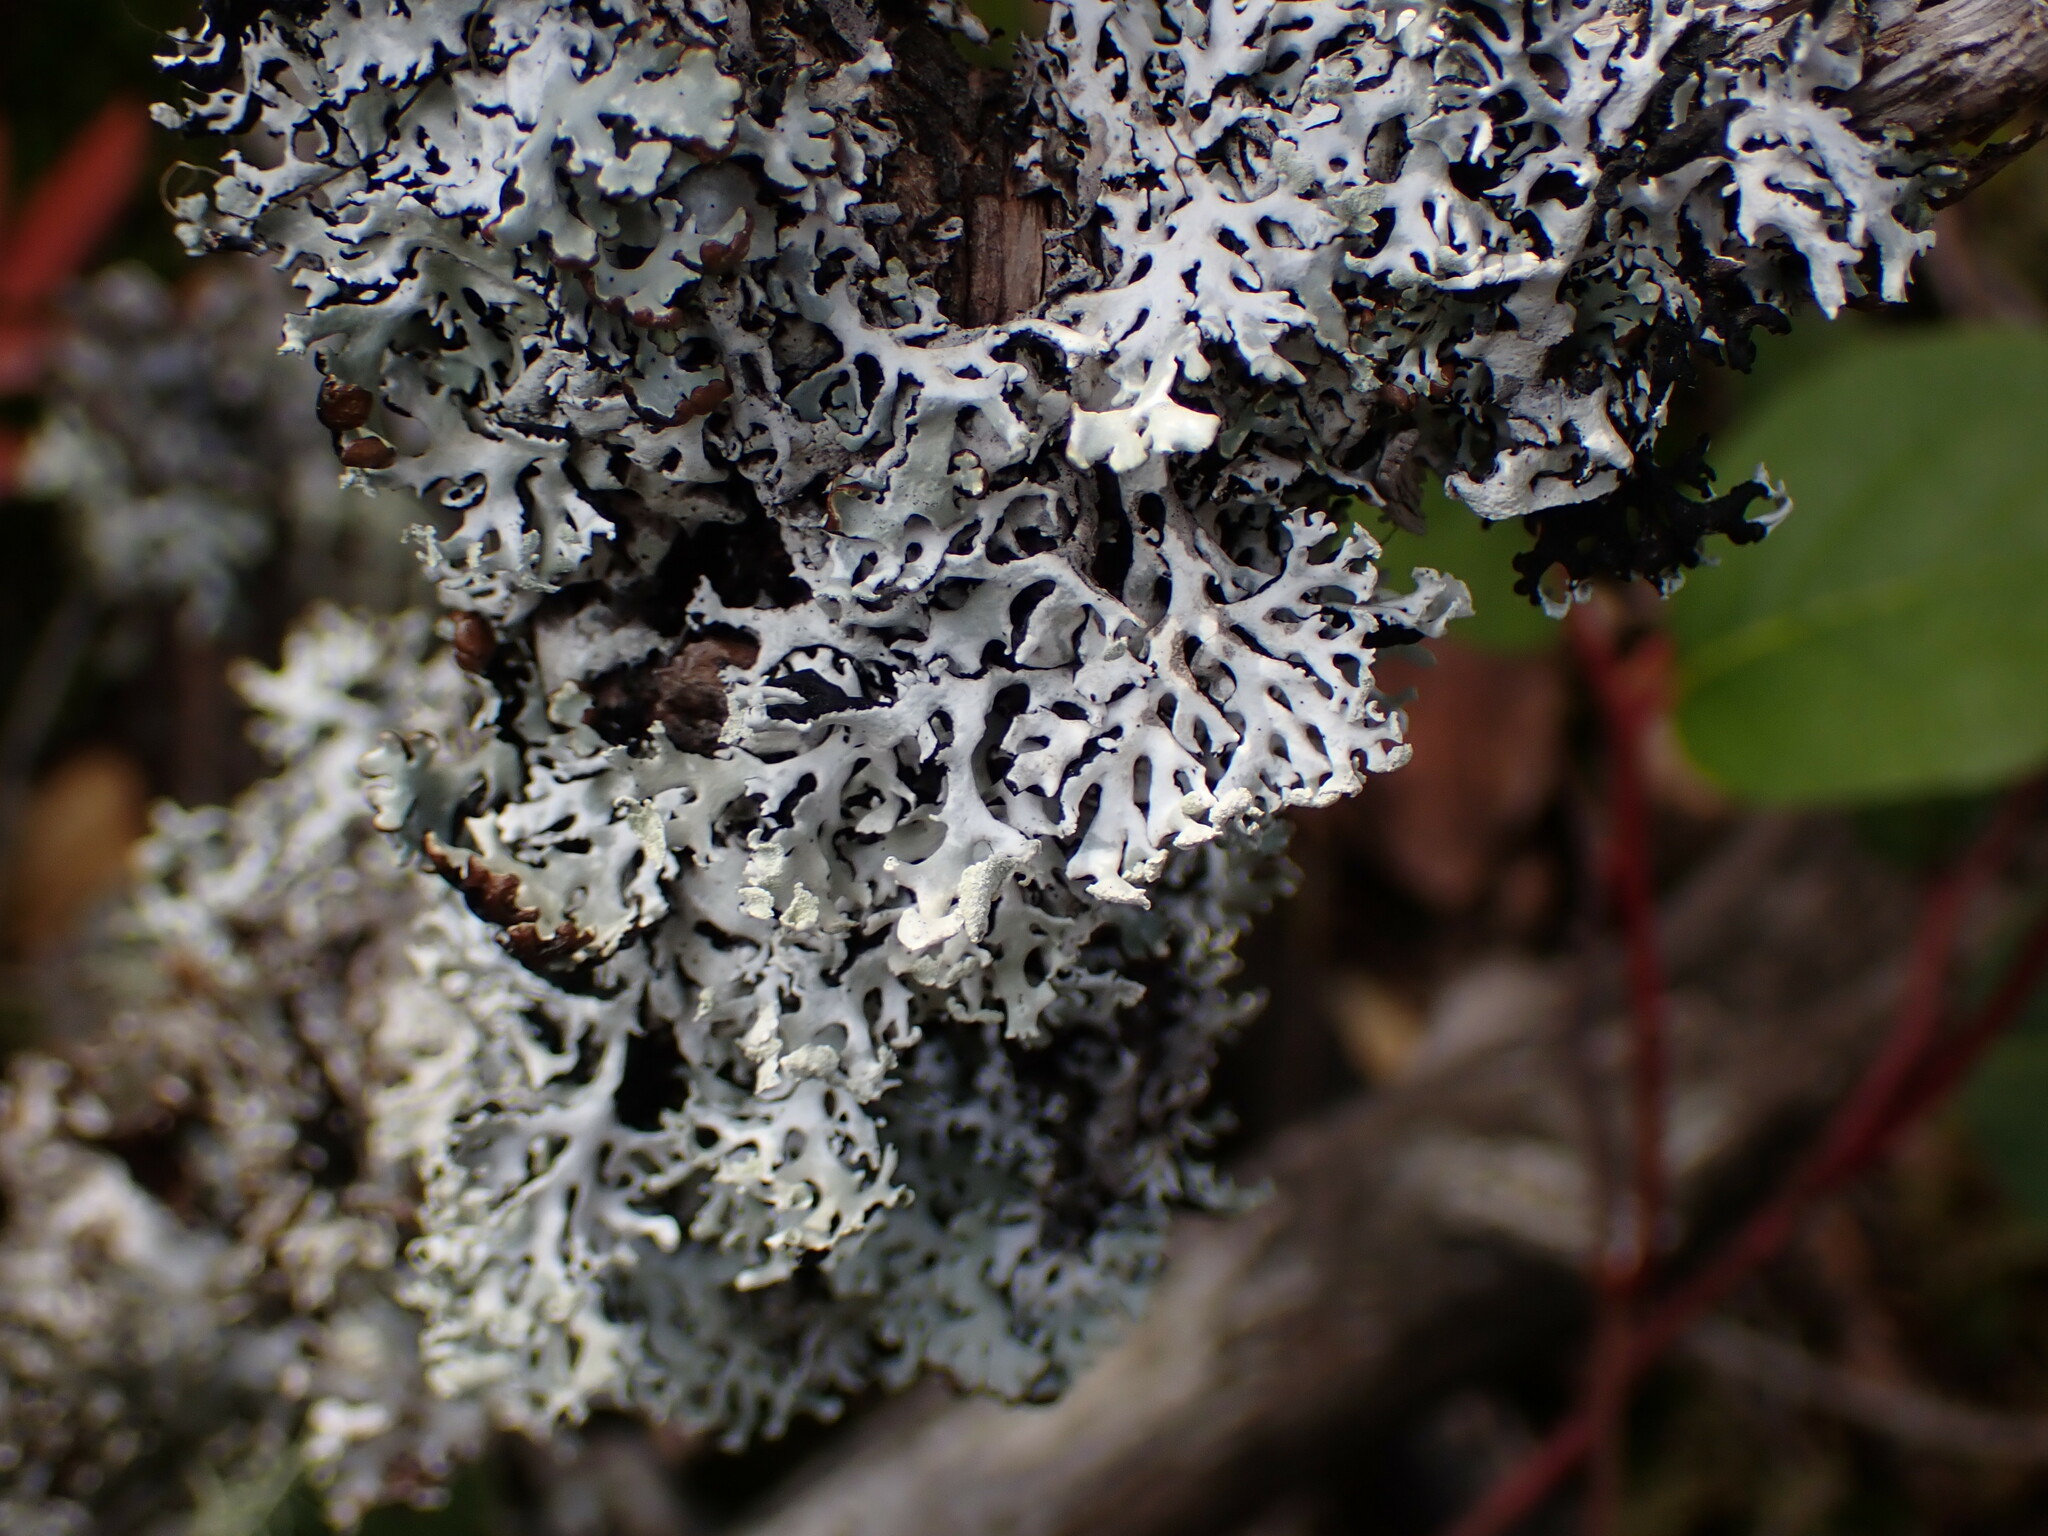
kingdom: Fungi
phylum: Ascomycota
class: Lecanoromycetes
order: Lecanorales
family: Parmeliaceae
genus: Hypogymnia
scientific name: Hypogymnia physodes
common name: Dark crottle
